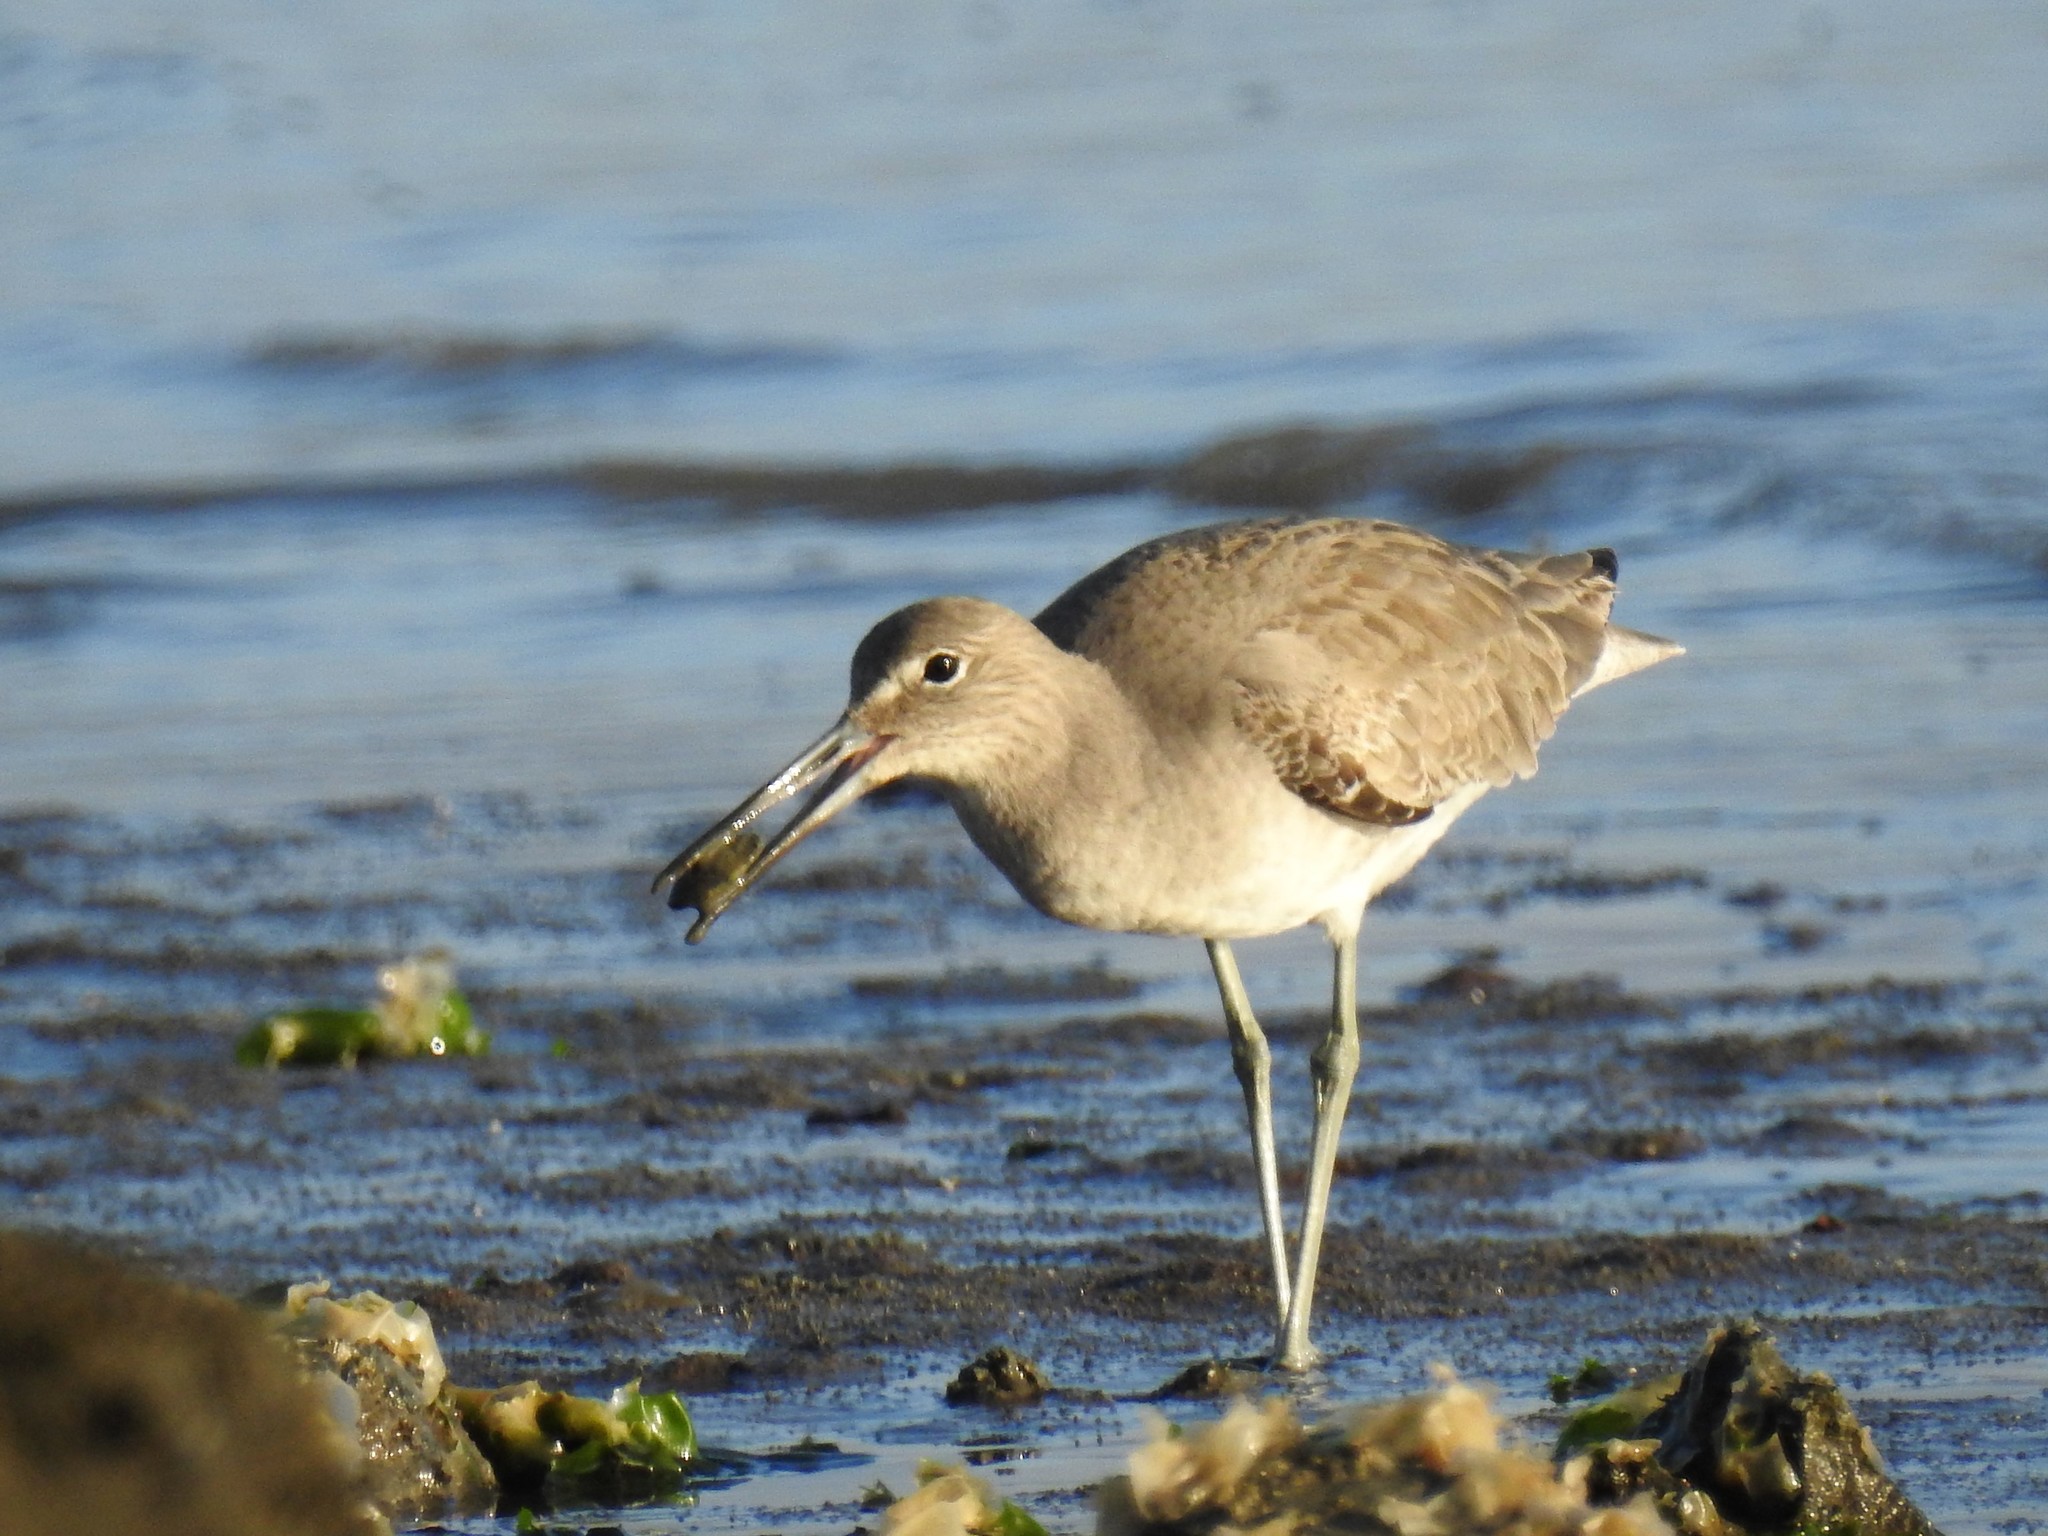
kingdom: Animalia
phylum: Chordata
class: Aves
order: Charadriiformes
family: Scolopacidae
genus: Tringa
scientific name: Tringa semipalmata
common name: Willet
